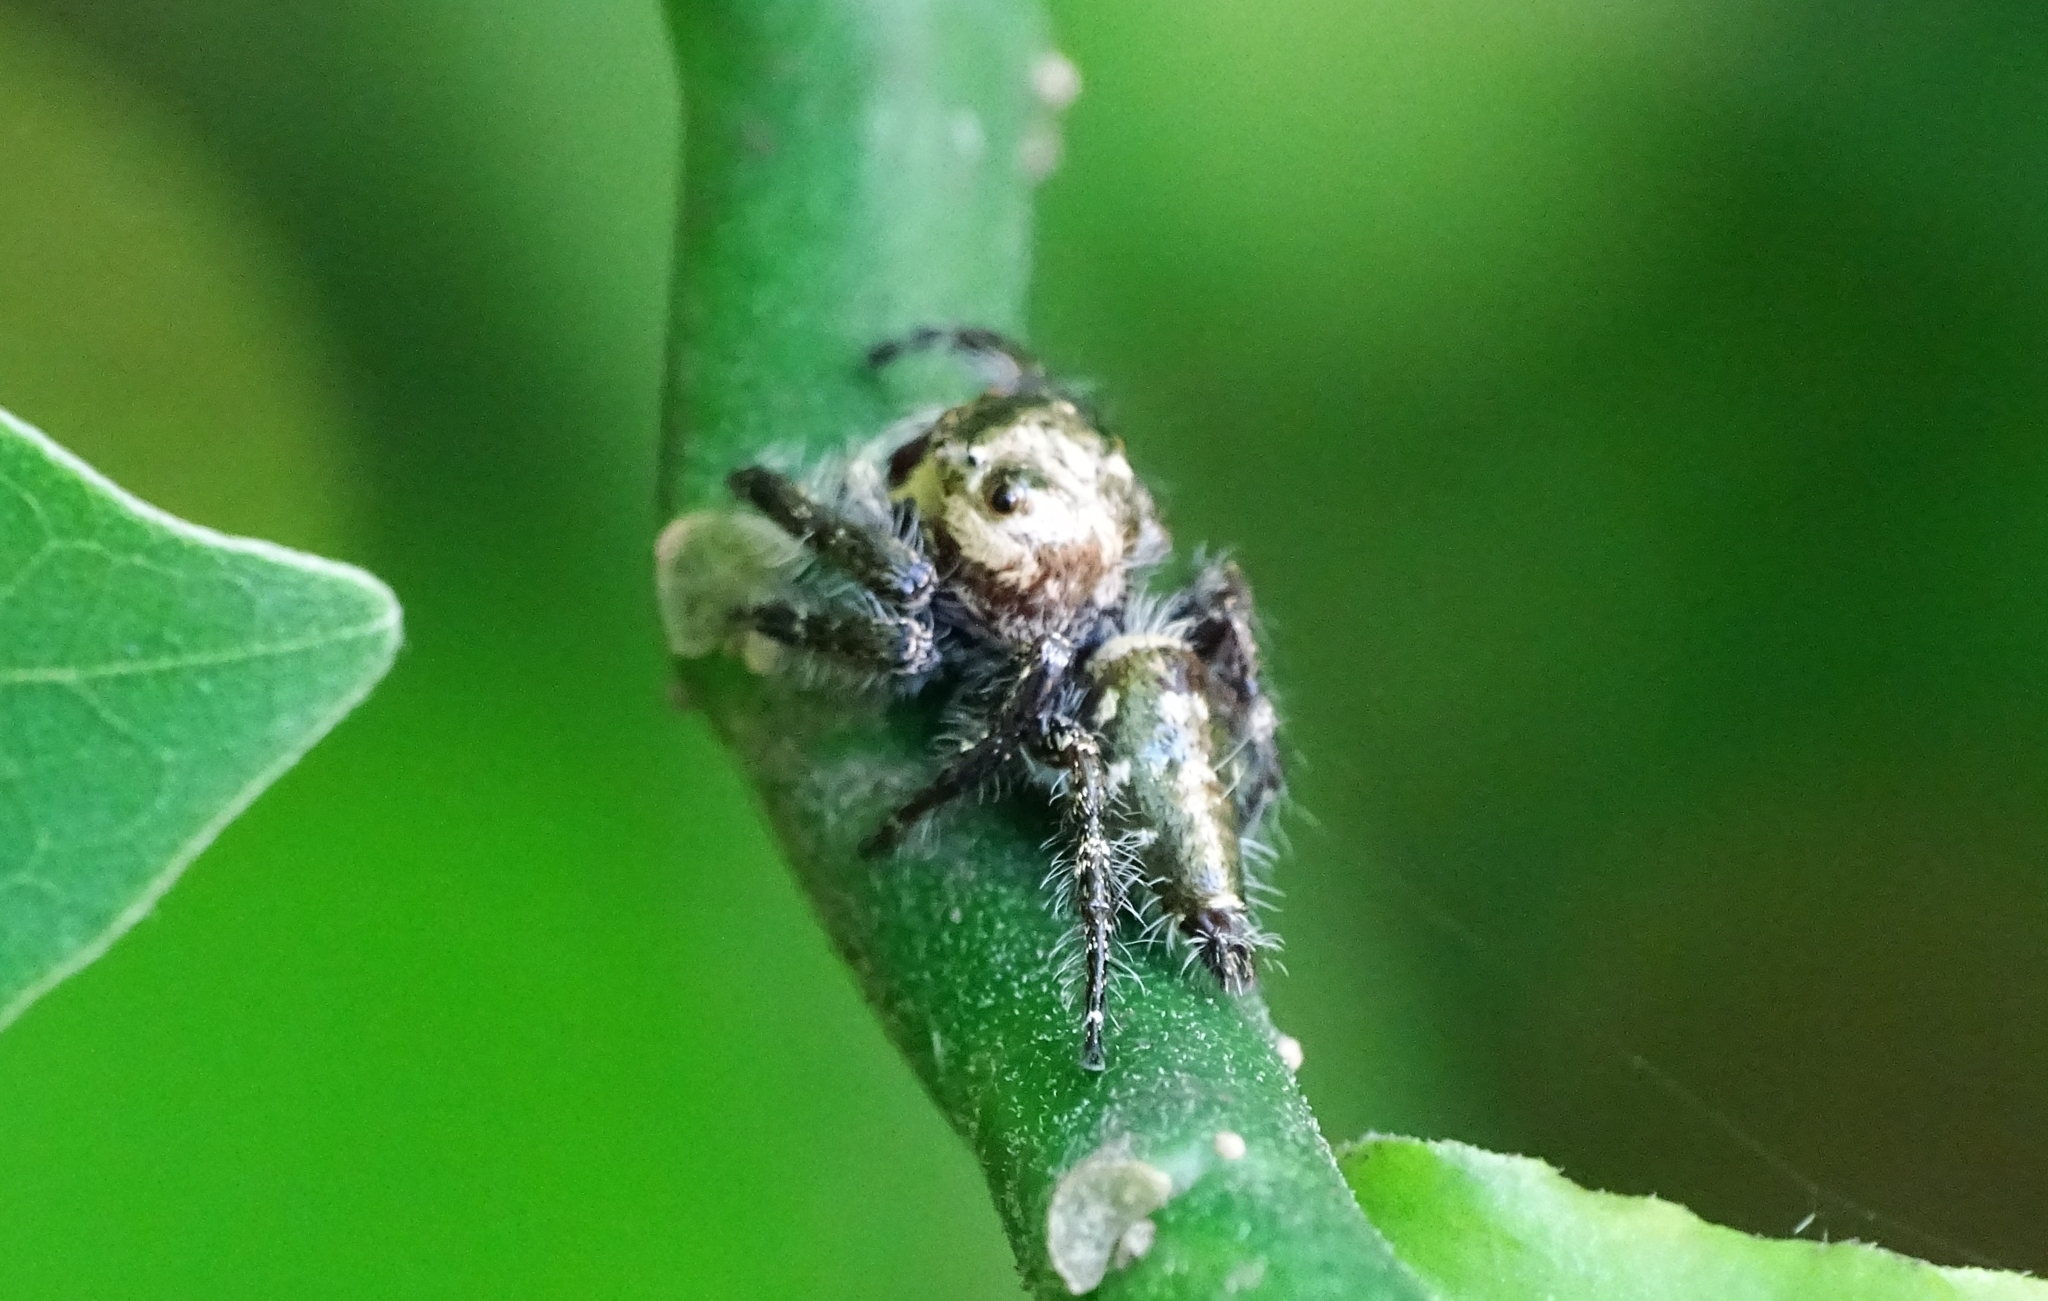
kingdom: Animalia
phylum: Arthropoda
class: Arachnida
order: Araneae
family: Salticidae
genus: Hyllus
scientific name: Hyllus semicupreus
